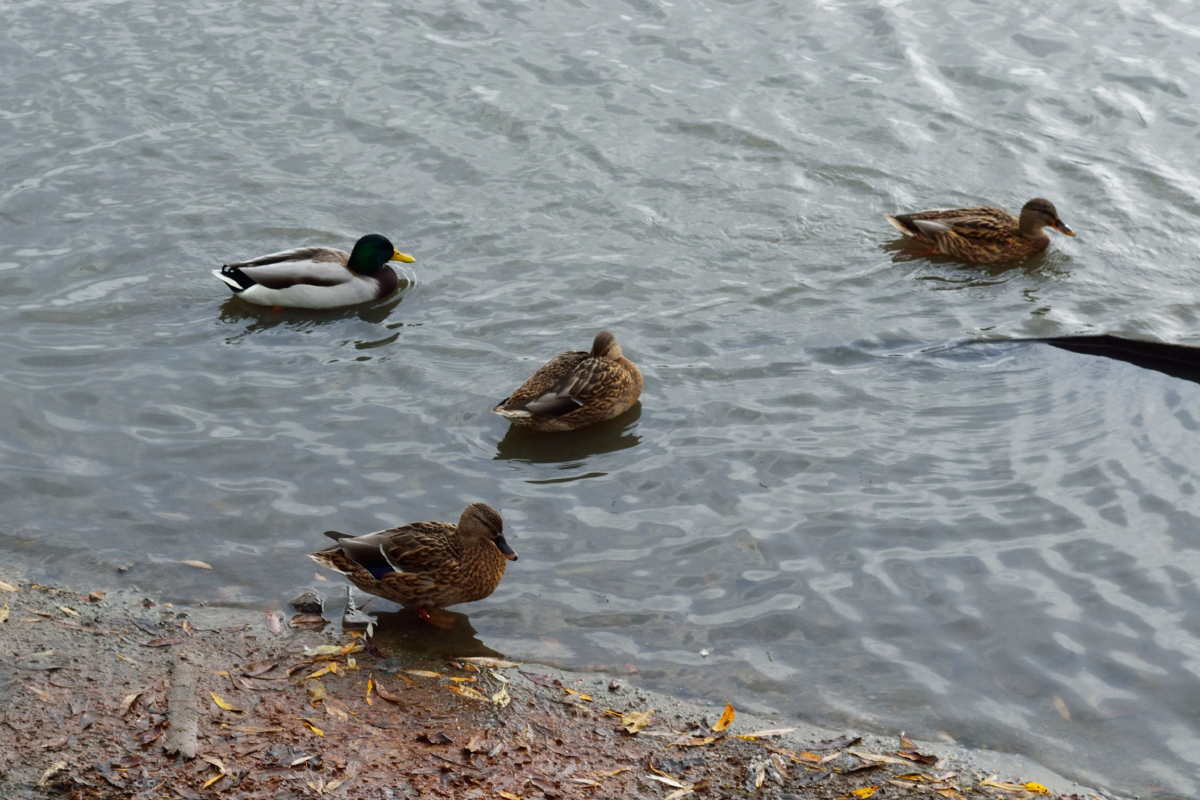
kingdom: Animalia
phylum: Chordata
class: Aves
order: Anseriformes
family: Anatidae
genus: Anas
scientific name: Anas platyrhynchos
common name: Mallard
